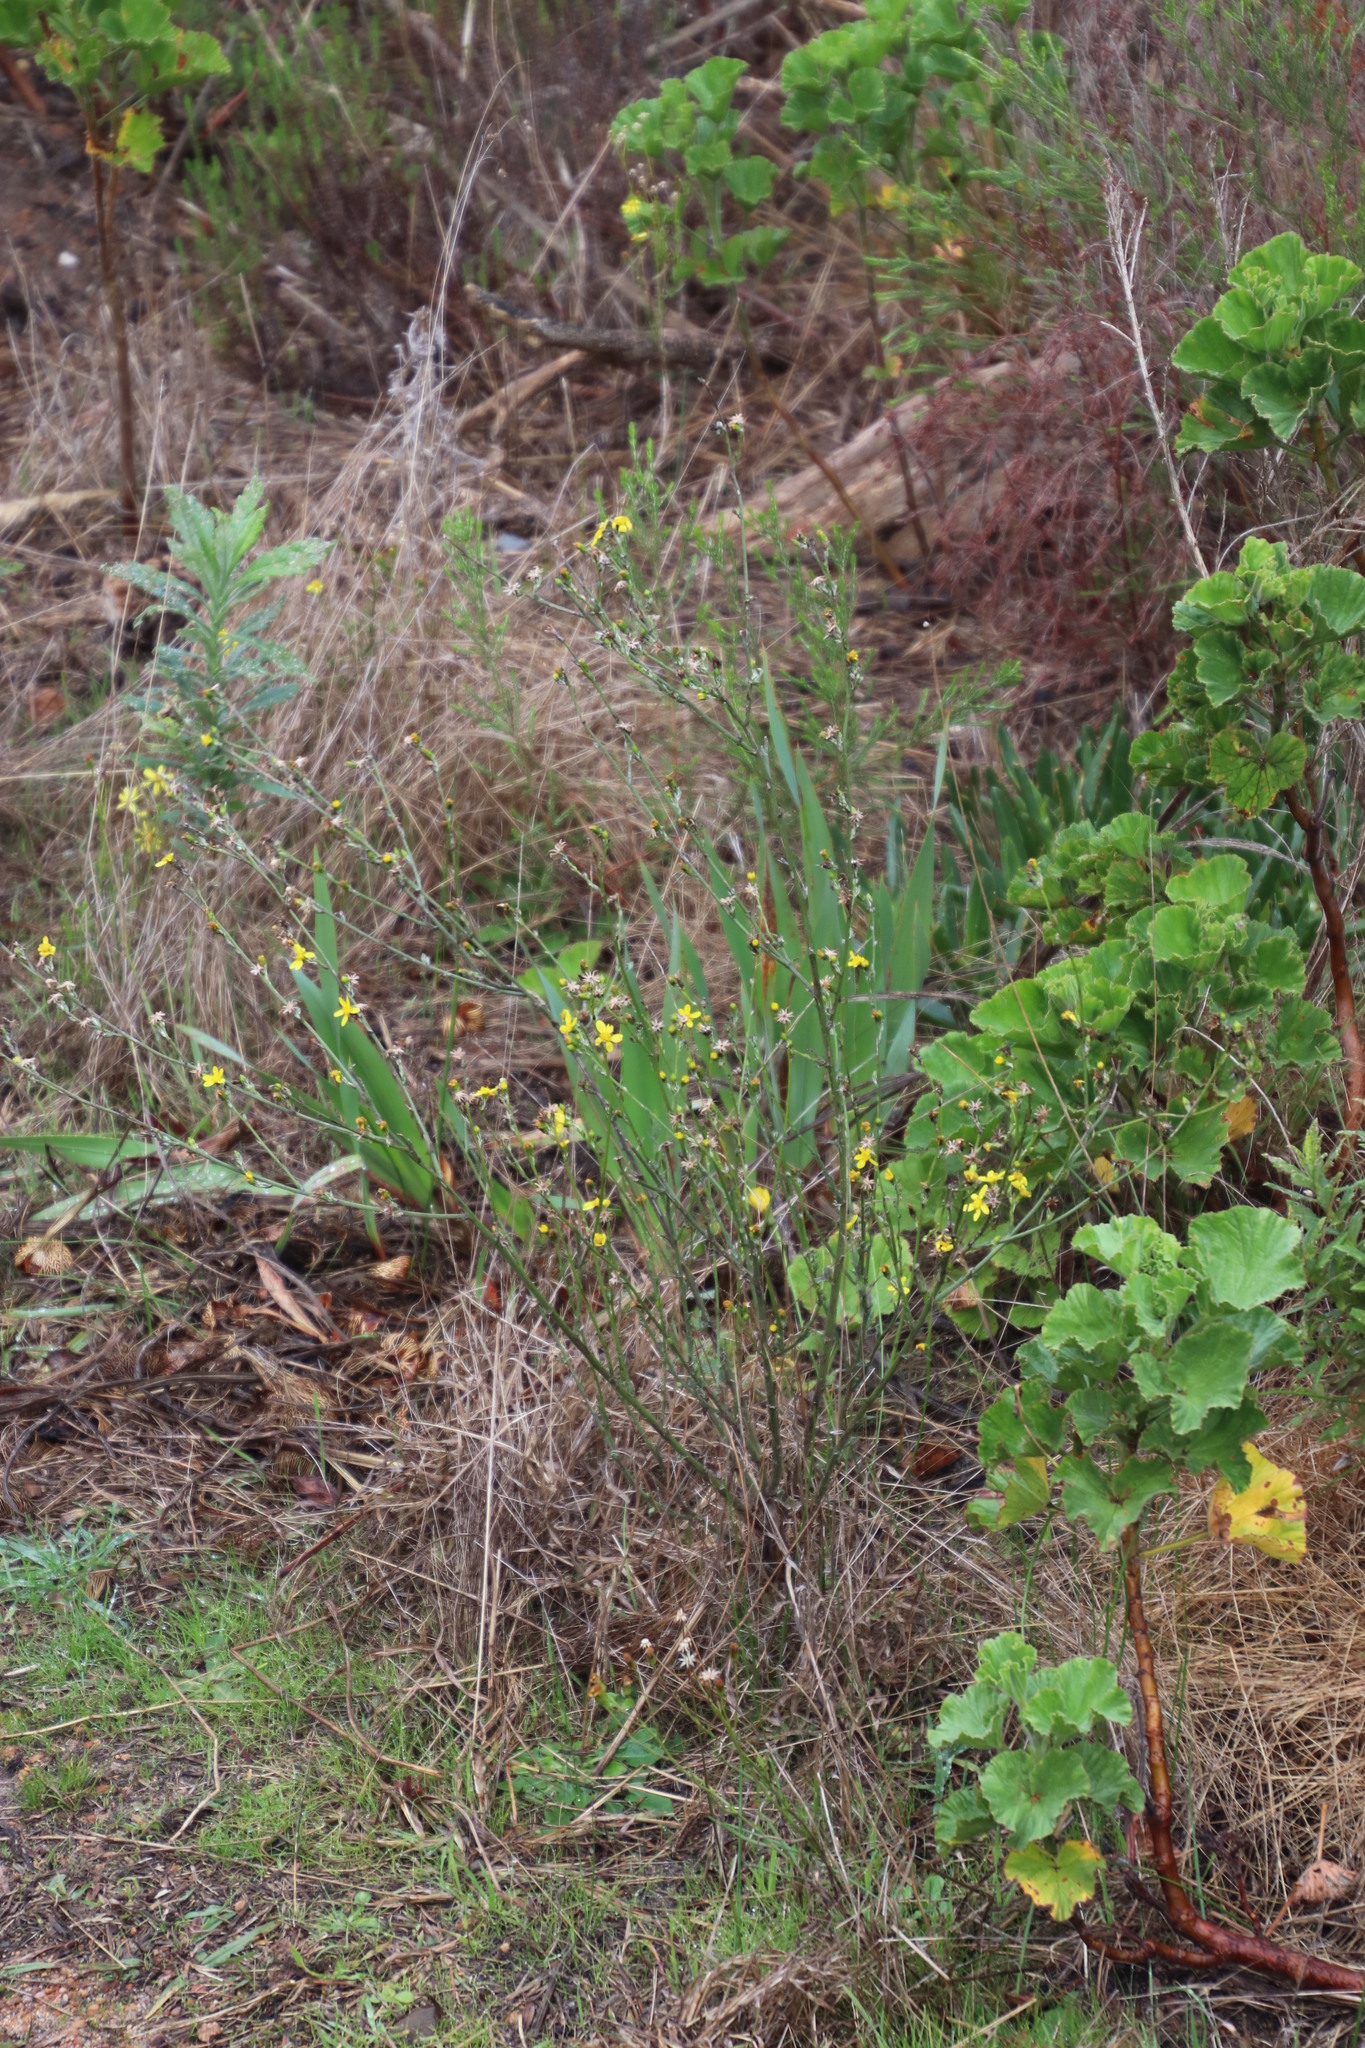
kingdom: Plantae
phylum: Tracheophyta
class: Magnoliopsida
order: Asterales
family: Asteraceae
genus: Senecio
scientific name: Senecio pubigerus
